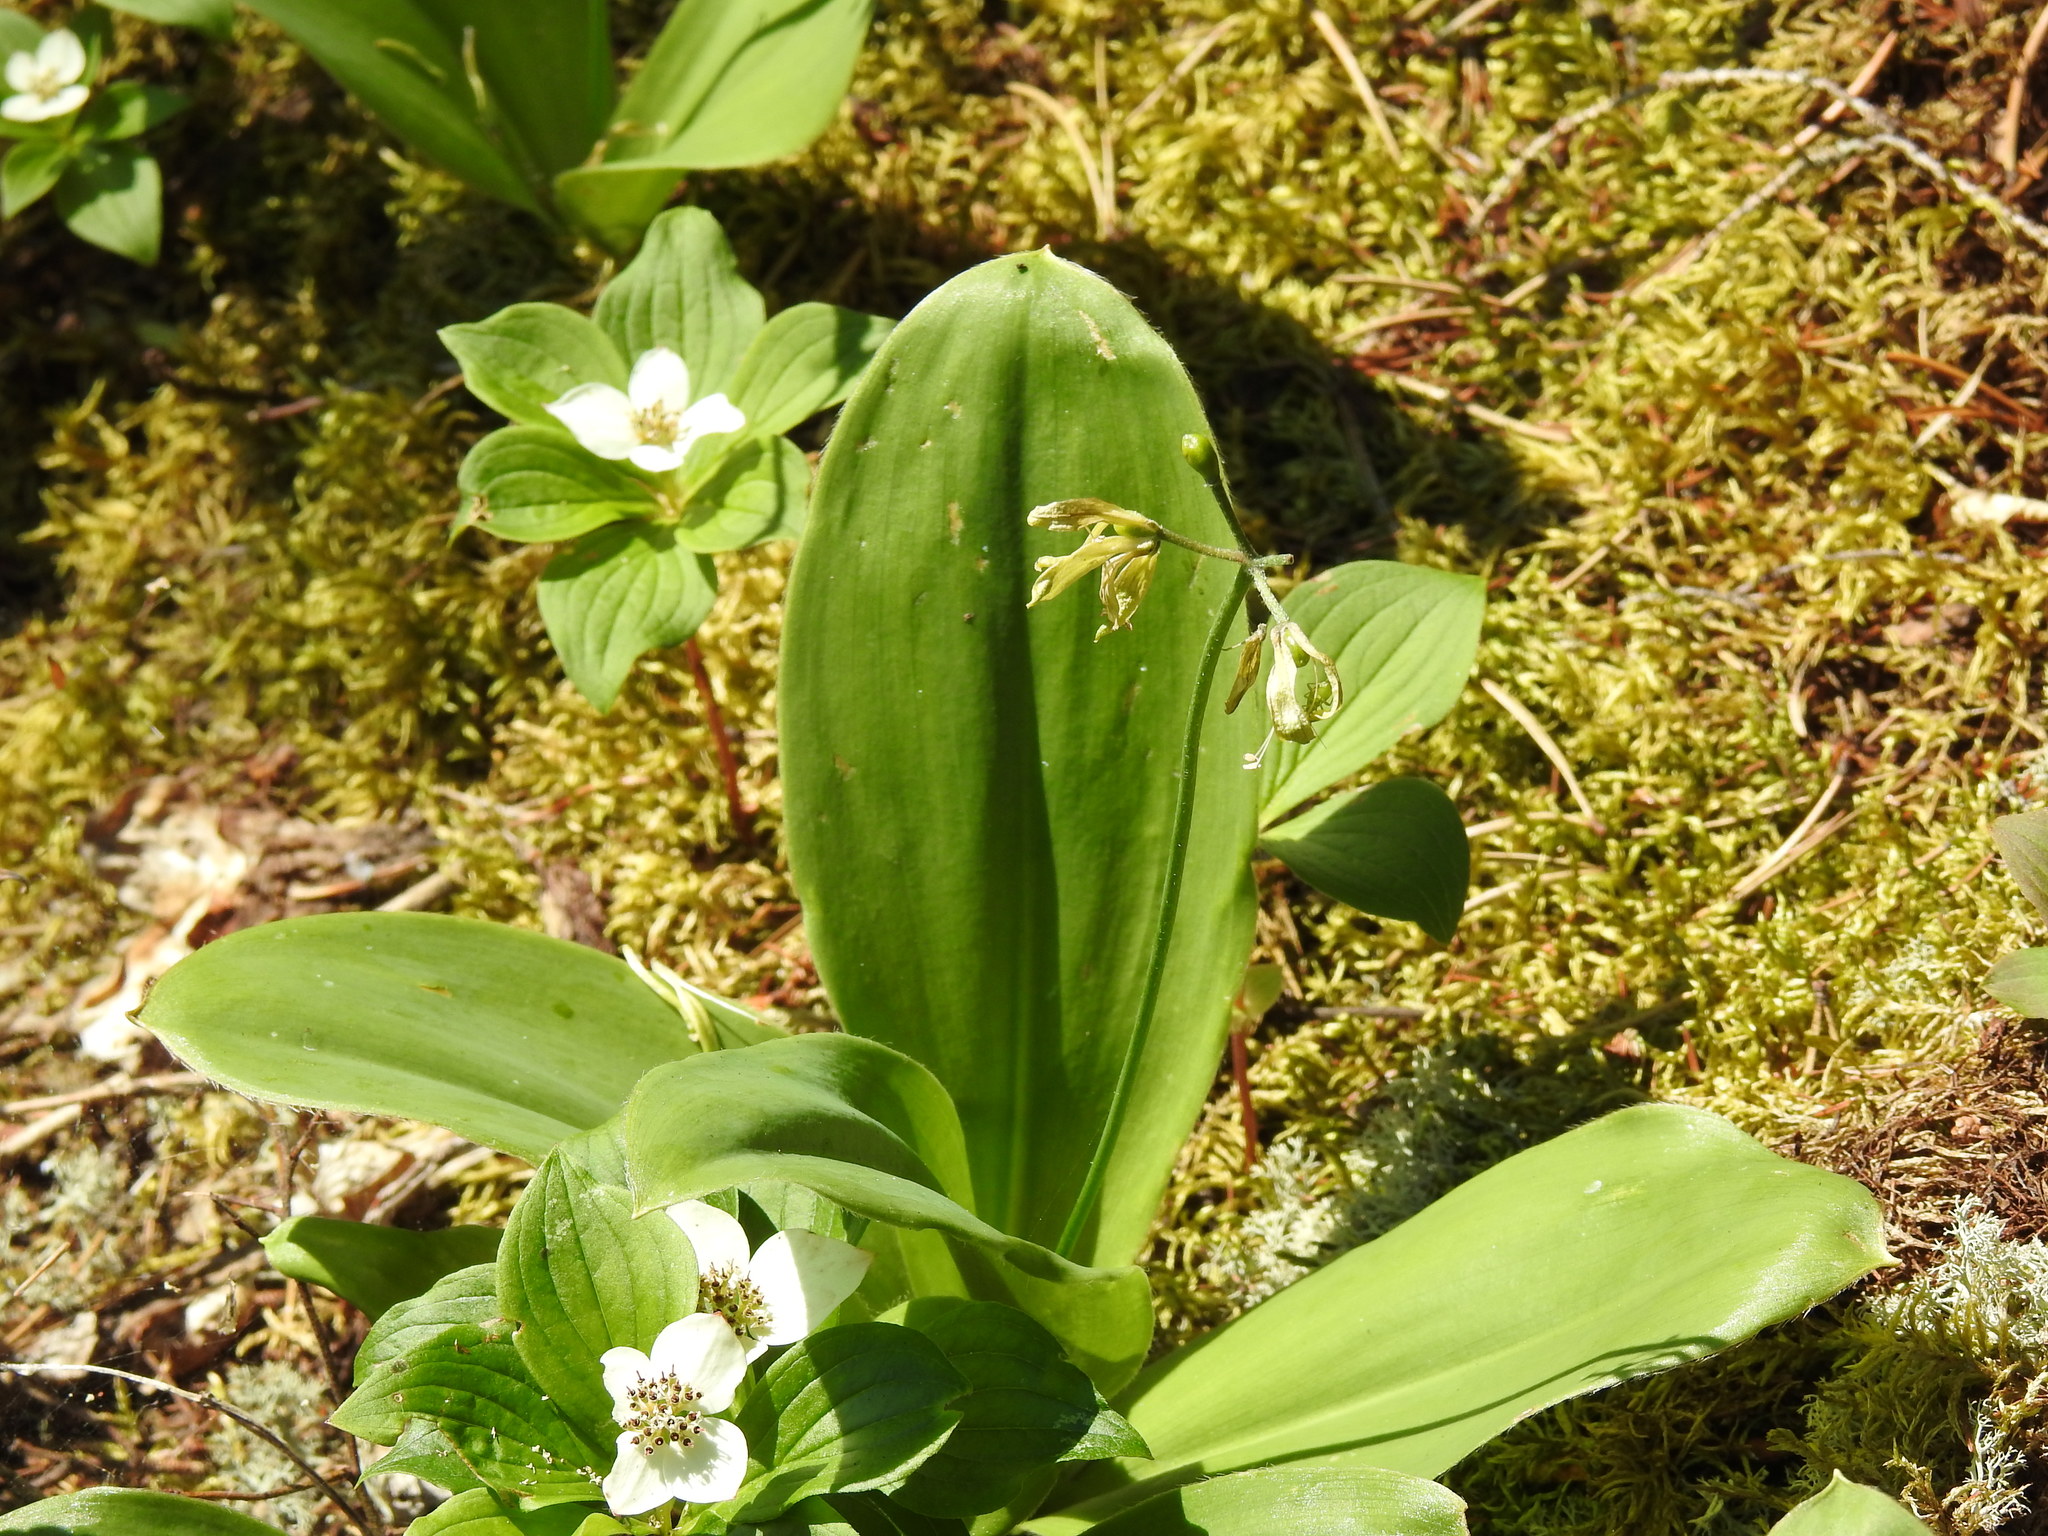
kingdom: Plantae
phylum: Tracheophyta
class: Liliopsida
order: Liliales
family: Liliaceae
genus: Clintonia
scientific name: Clintonia borealis
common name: Yellow clintonia
